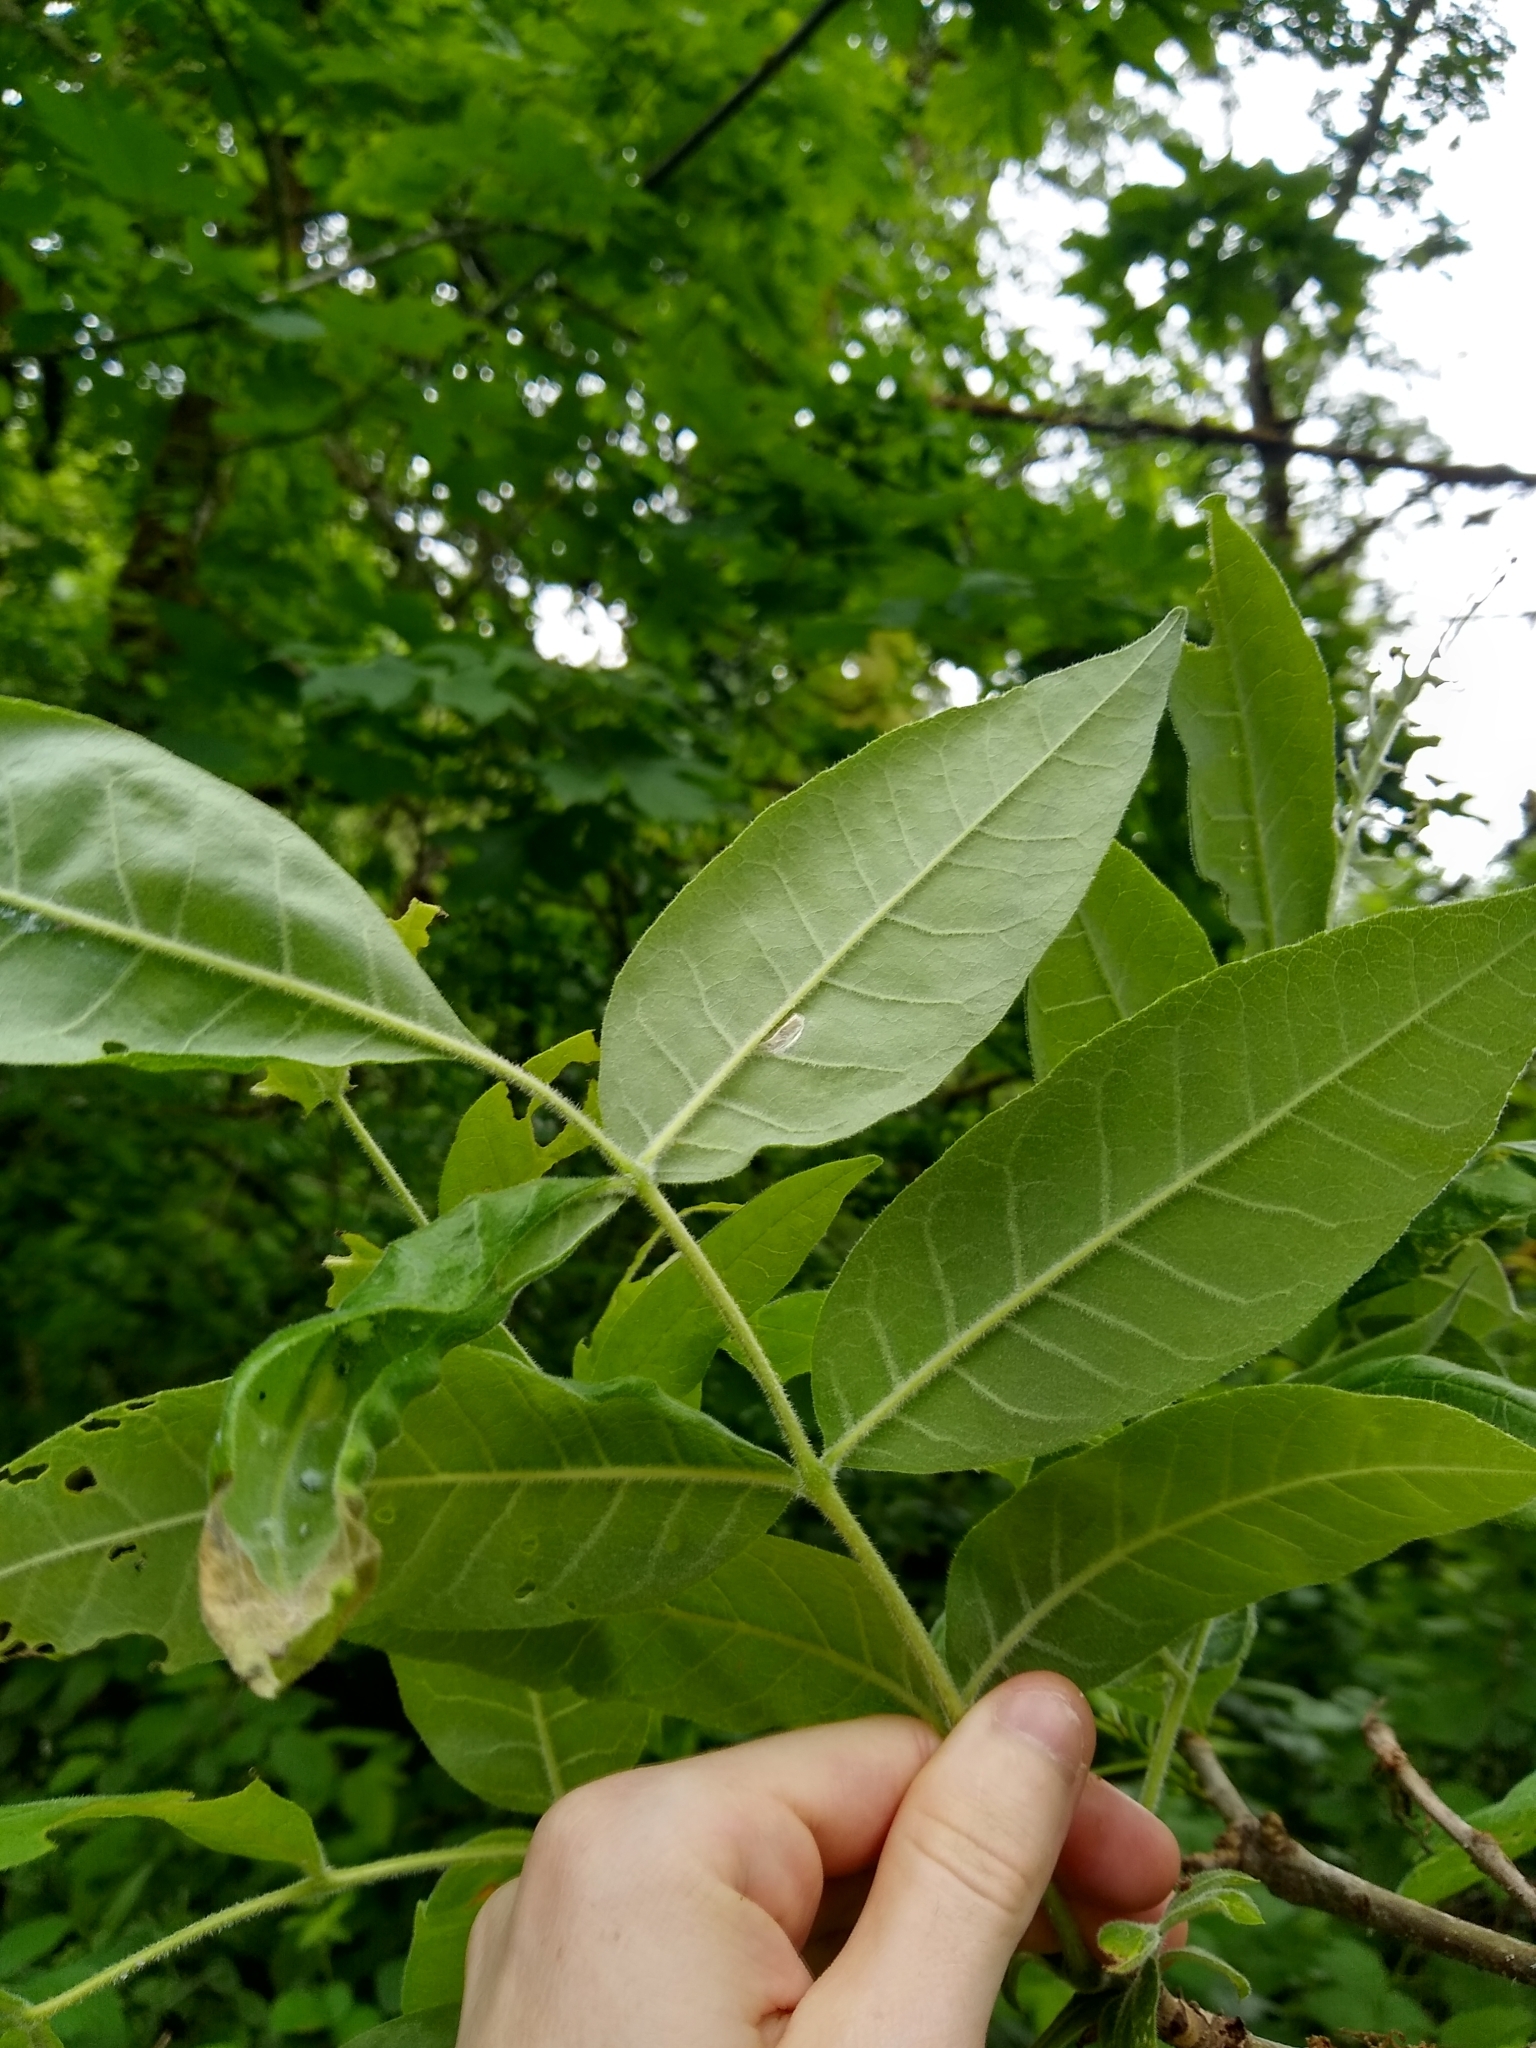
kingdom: Plantae
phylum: Tracheophyta
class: Magnoliopsida
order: Lamiales
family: Oleaceae
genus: Fraxinus
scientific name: Fraxinus latifolia
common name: Oregon ash
